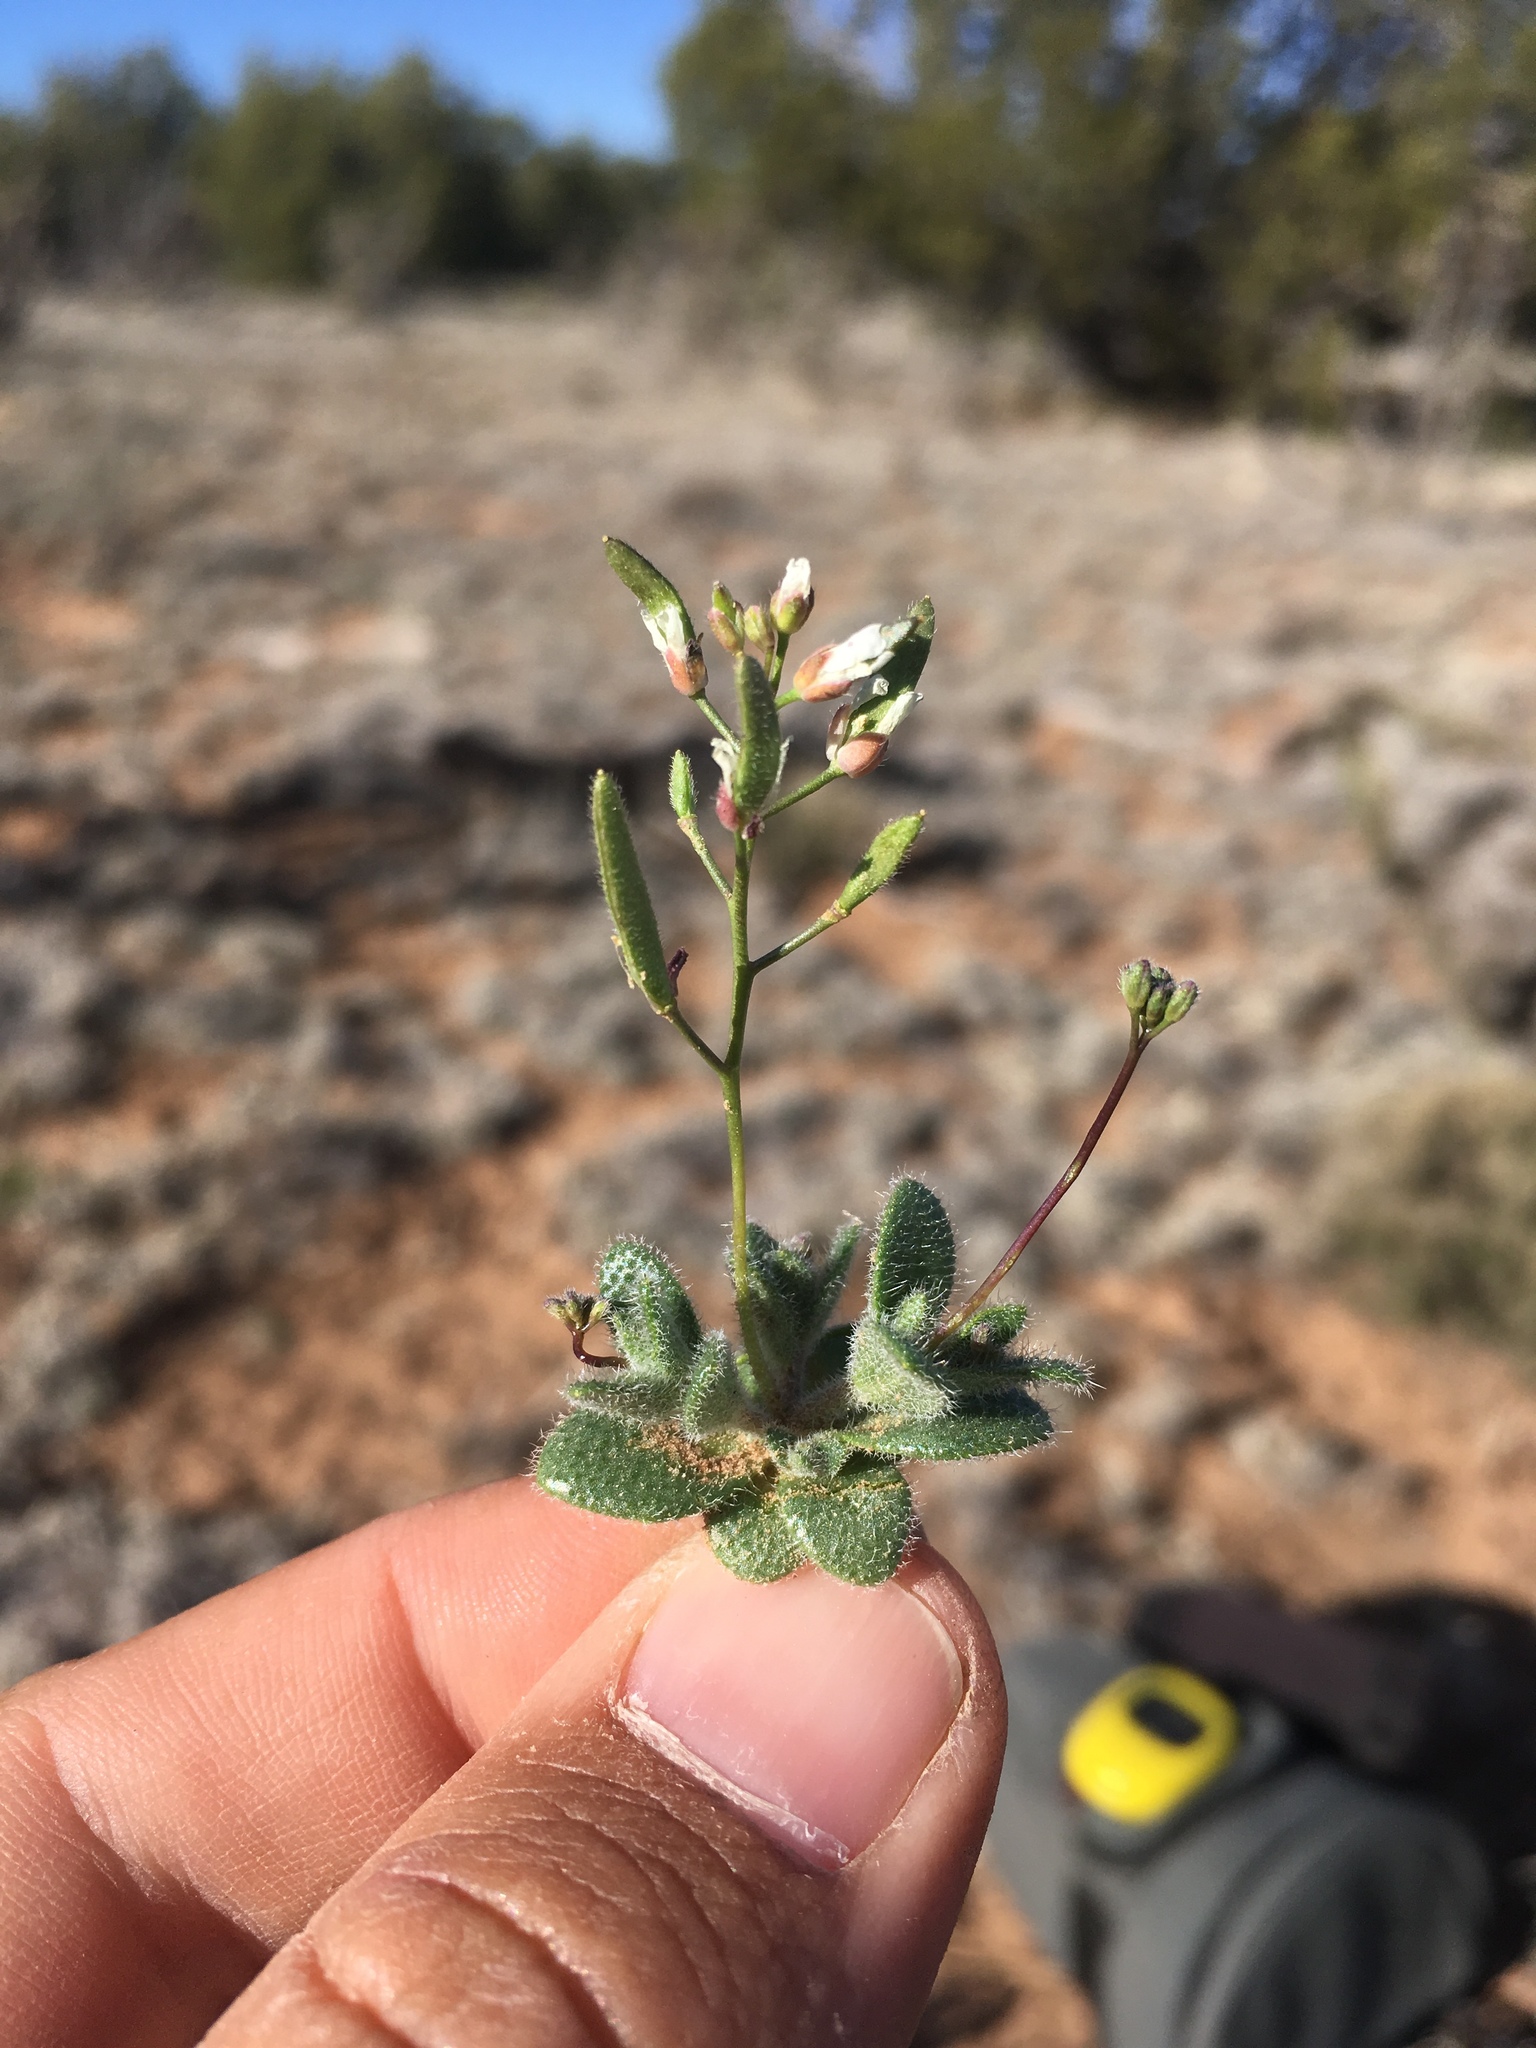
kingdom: Plantae
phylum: Tracheophyta
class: Magnoliopsida
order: Brassicales
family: Brassicaceae
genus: Tomostima
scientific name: Tomostima reptans
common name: Carolina draba
